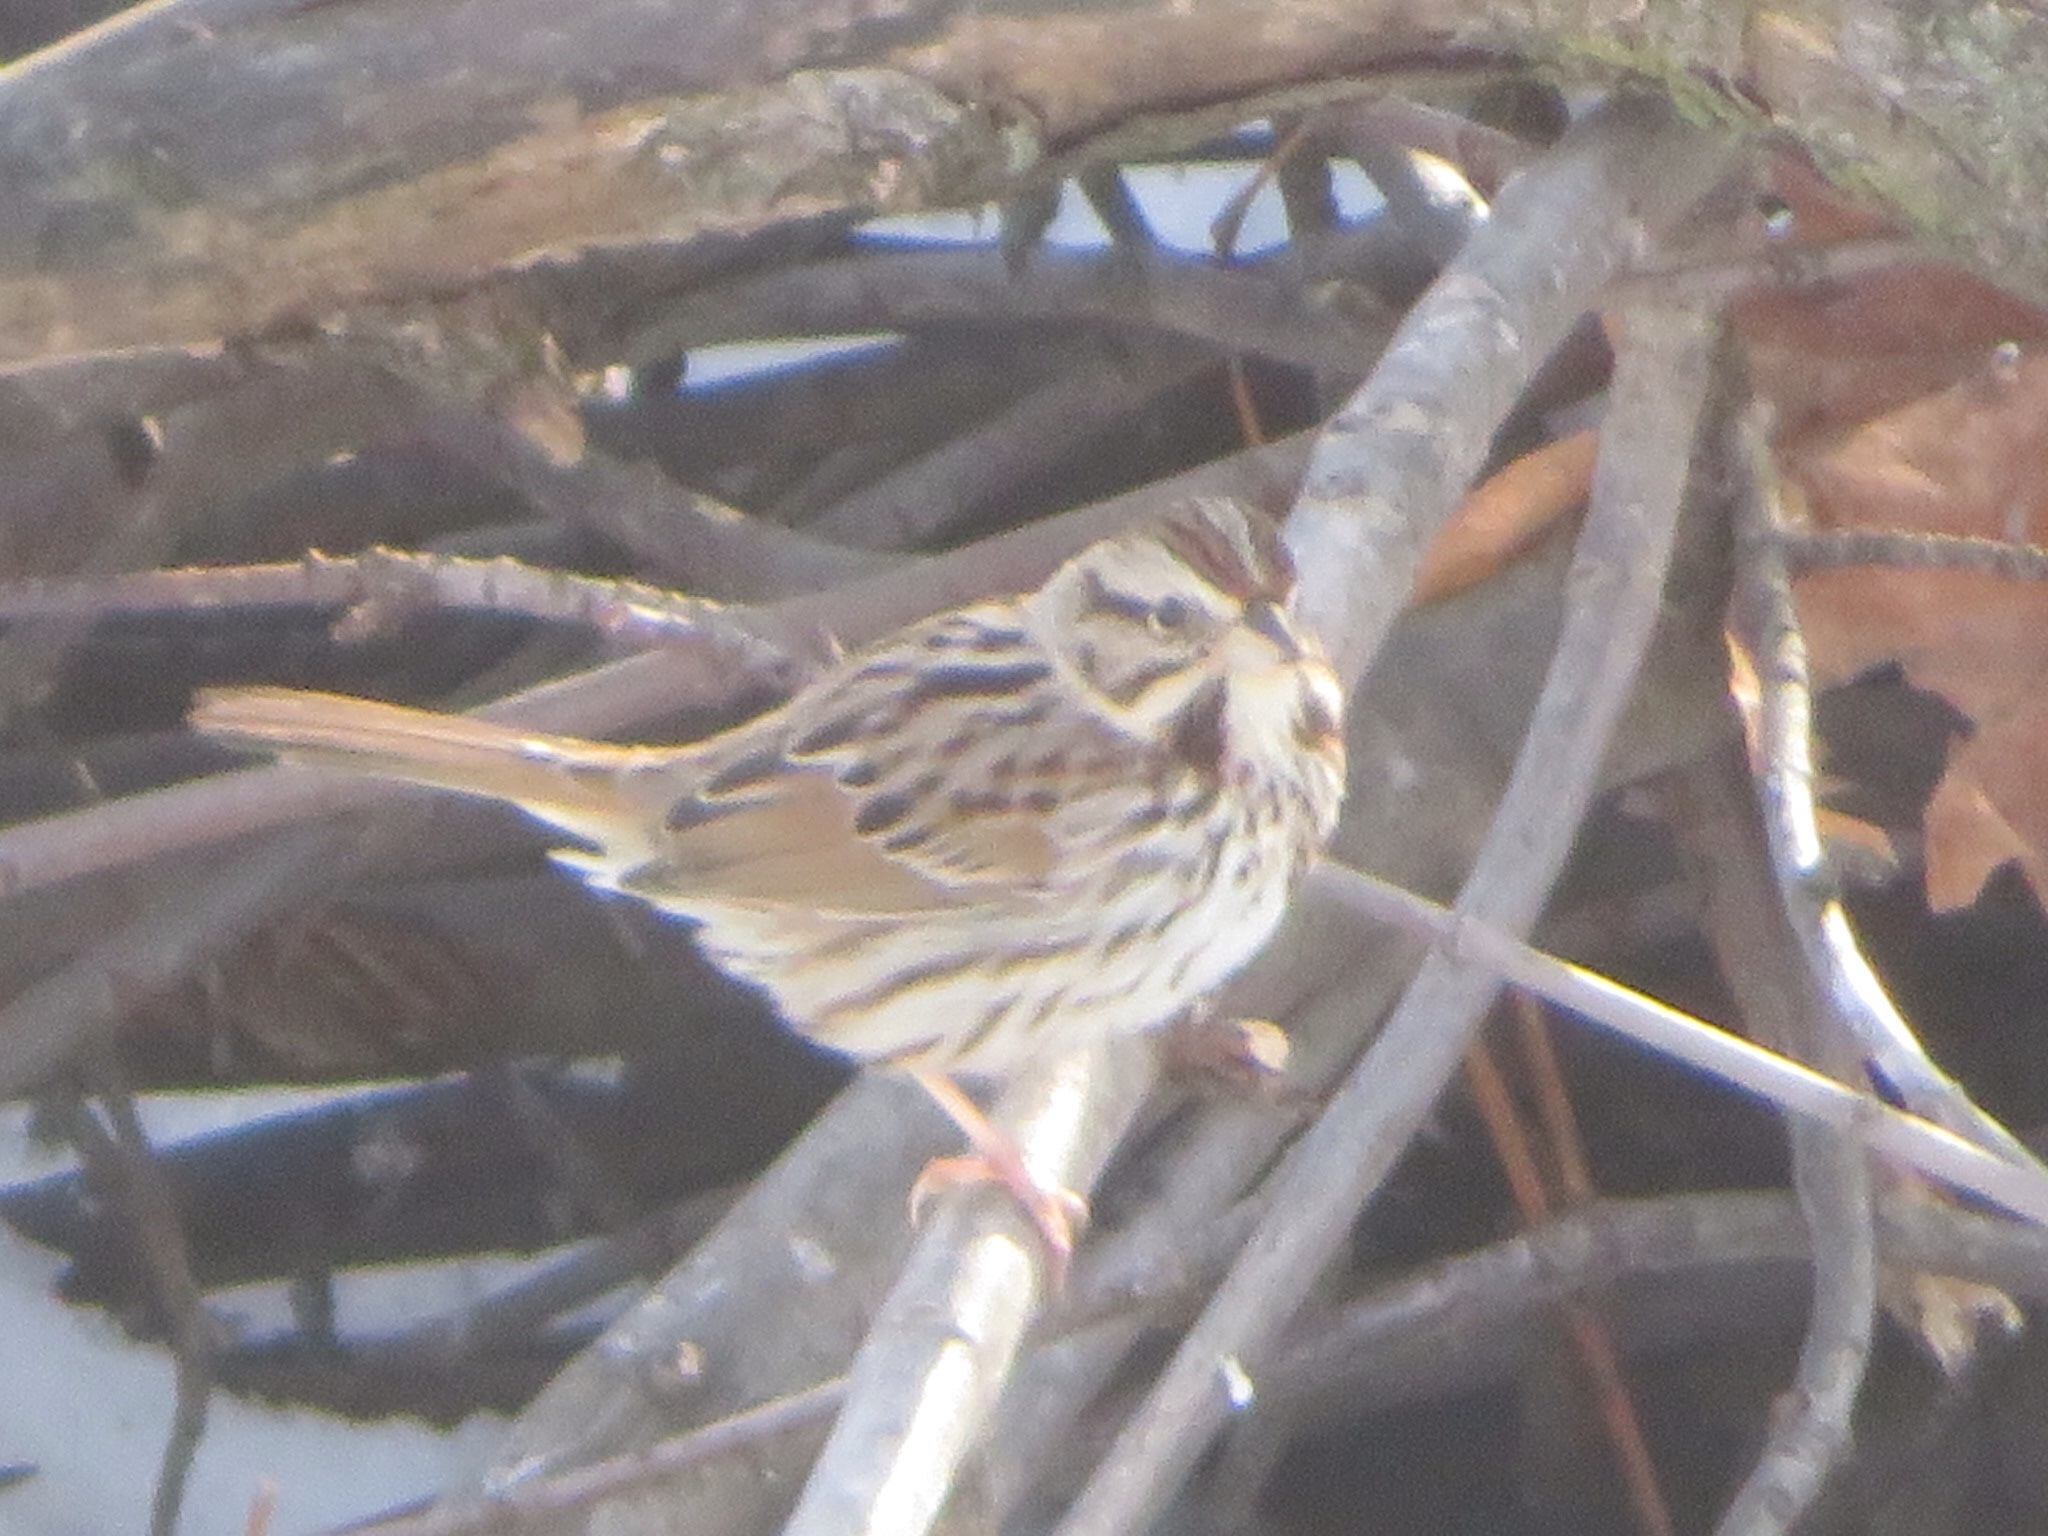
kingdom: Animalia
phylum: Chordata
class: Aves
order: Passeriformes
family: Passerellidae
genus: Melospiza
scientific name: Melospiza melodia
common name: Song sparrow
